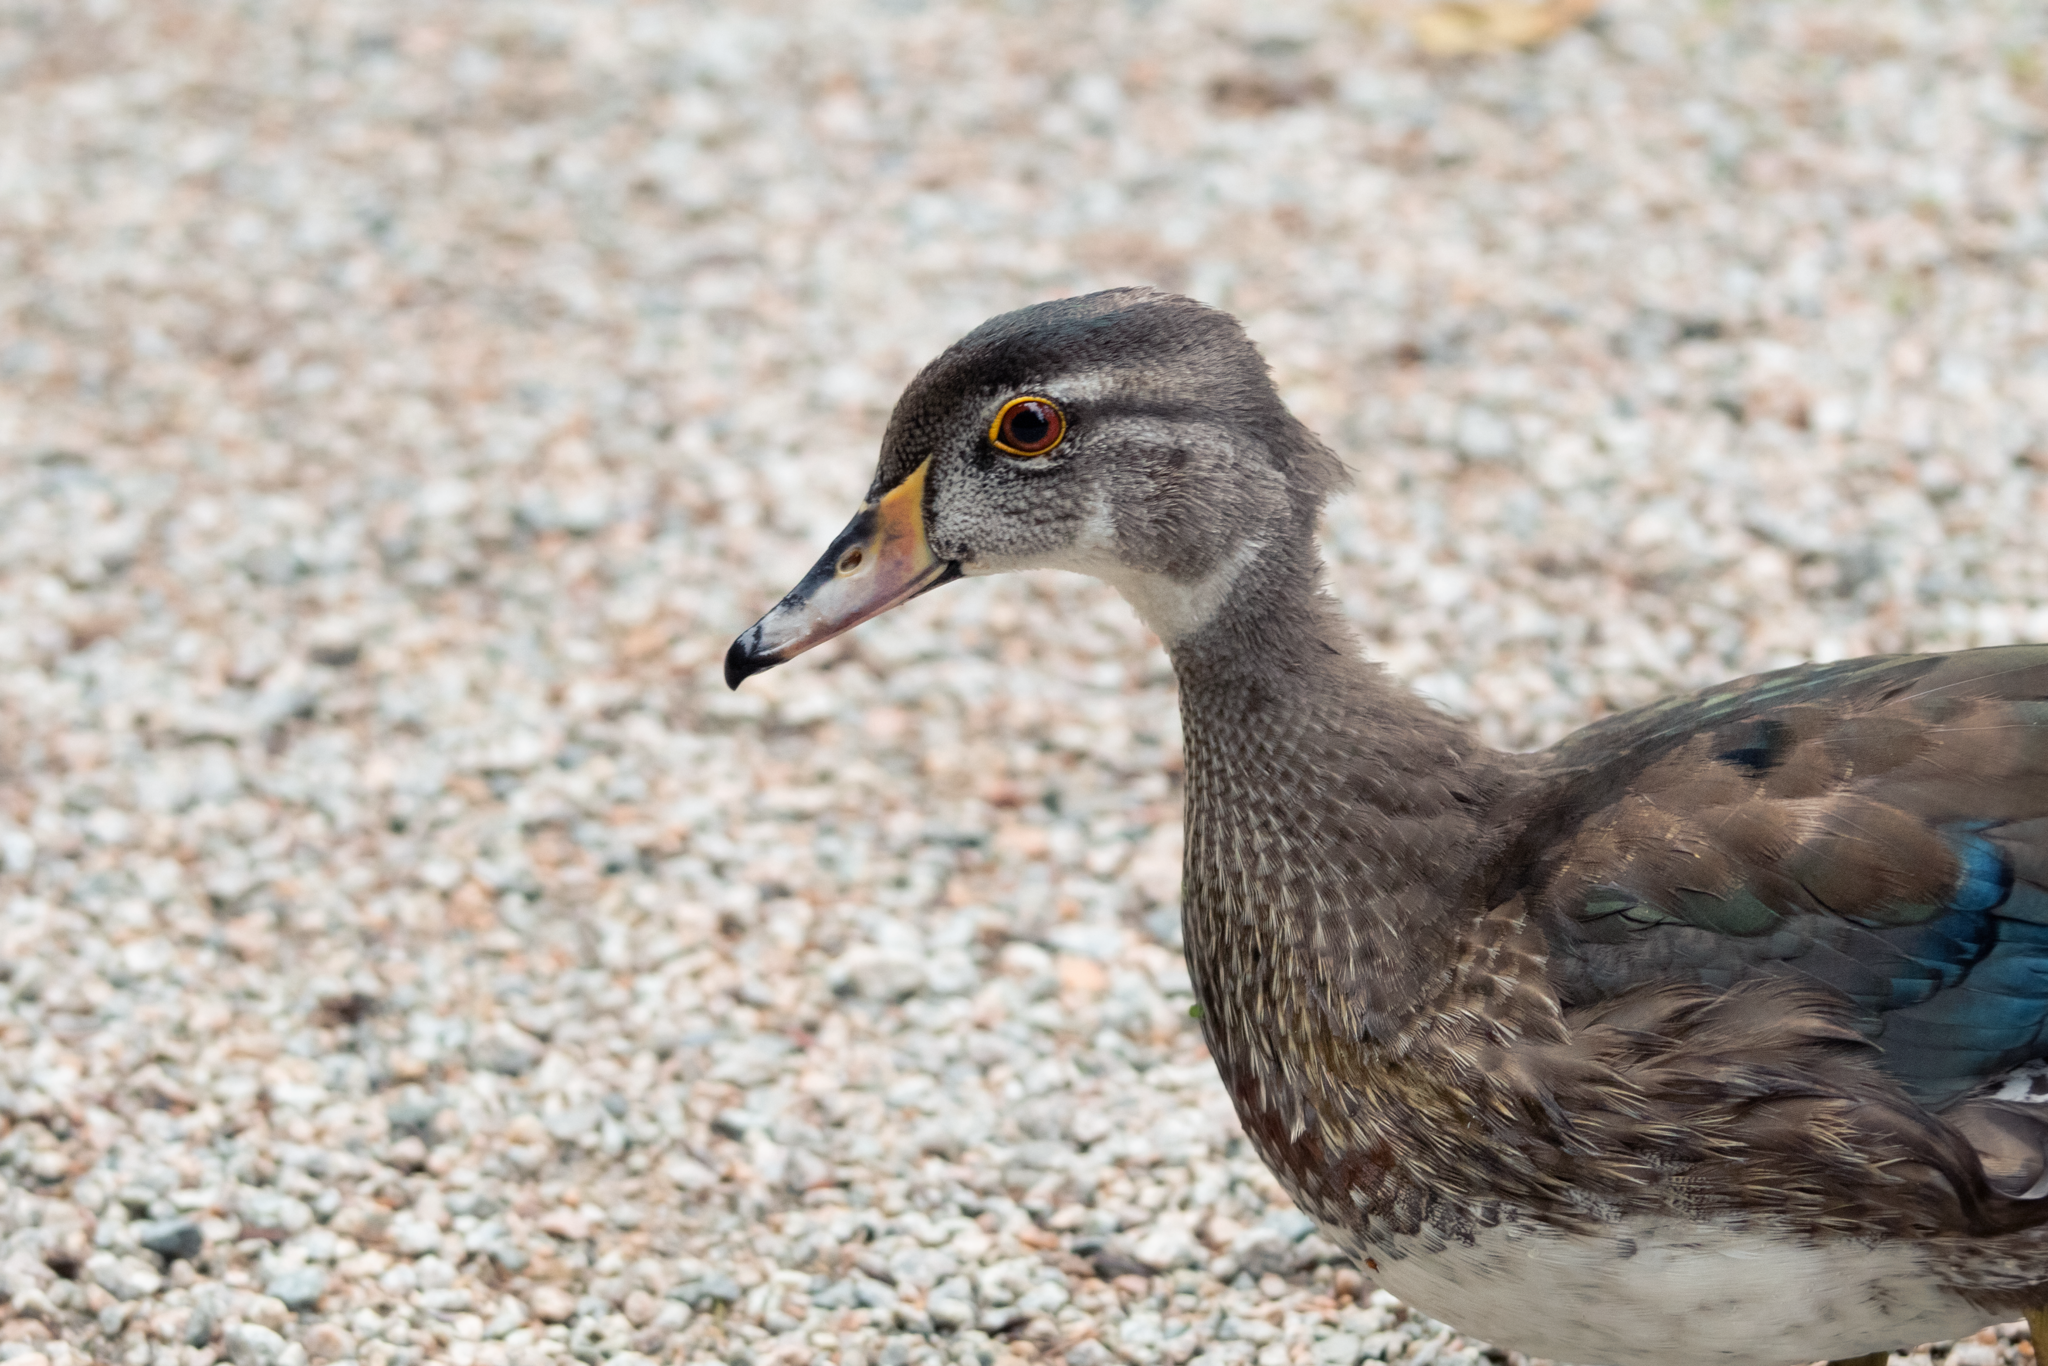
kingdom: Animalia
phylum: Chordata
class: Aves
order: Anseriformes
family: Anatidae
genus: Aix
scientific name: Aix sponsa
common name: Wood duck
